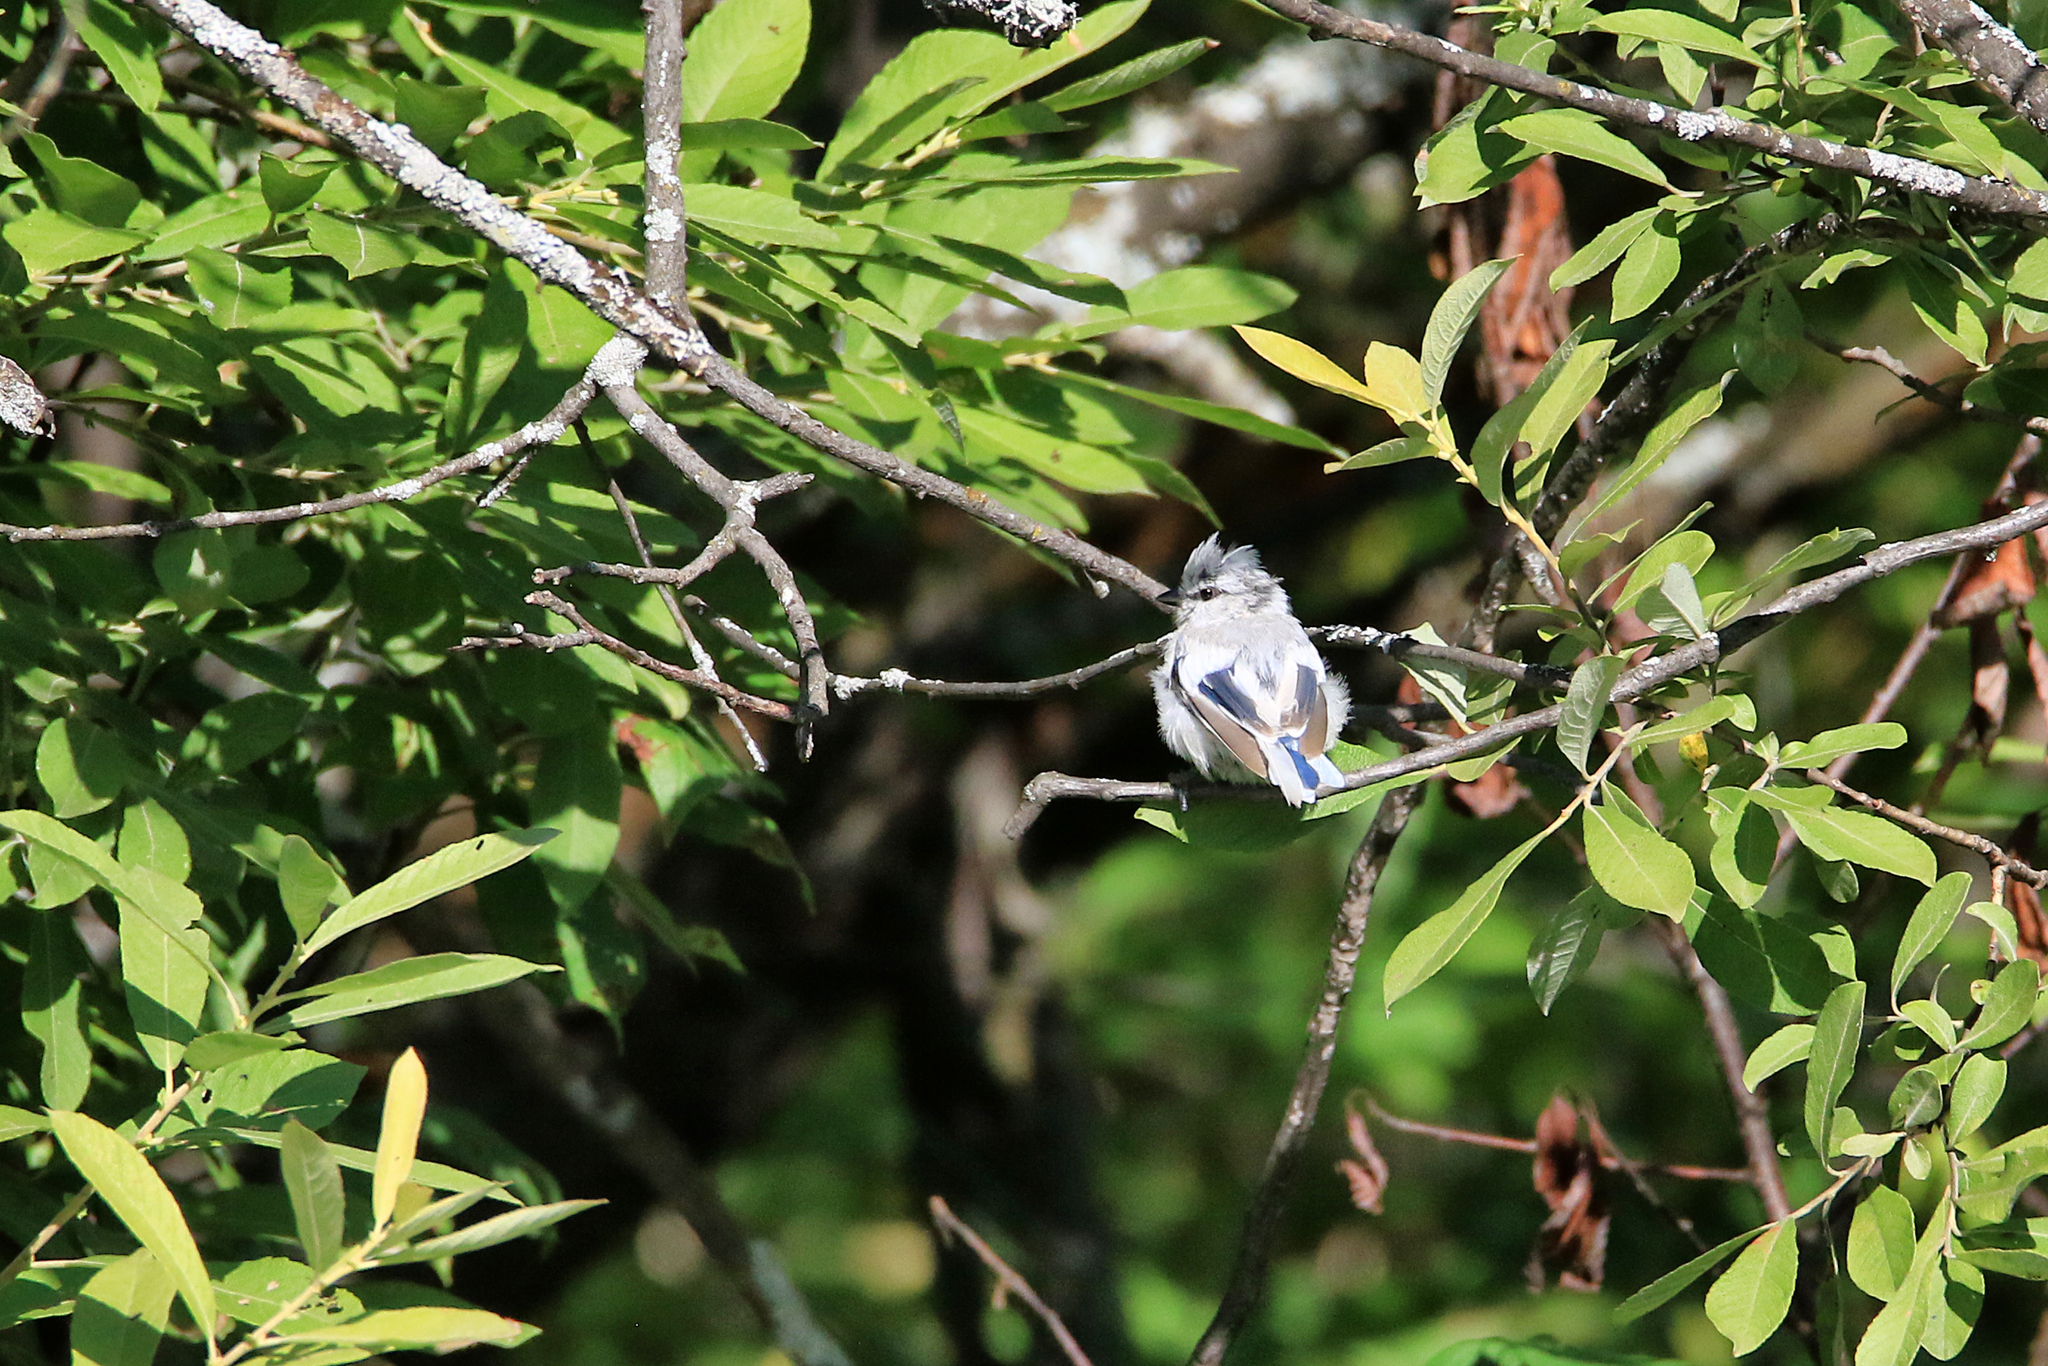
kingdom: Animalia
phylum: Chordata
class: Aves
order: Passeriformes
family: Paridae
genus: Cyanistes
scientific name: Cyanistes cyanus
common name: Azure tit
